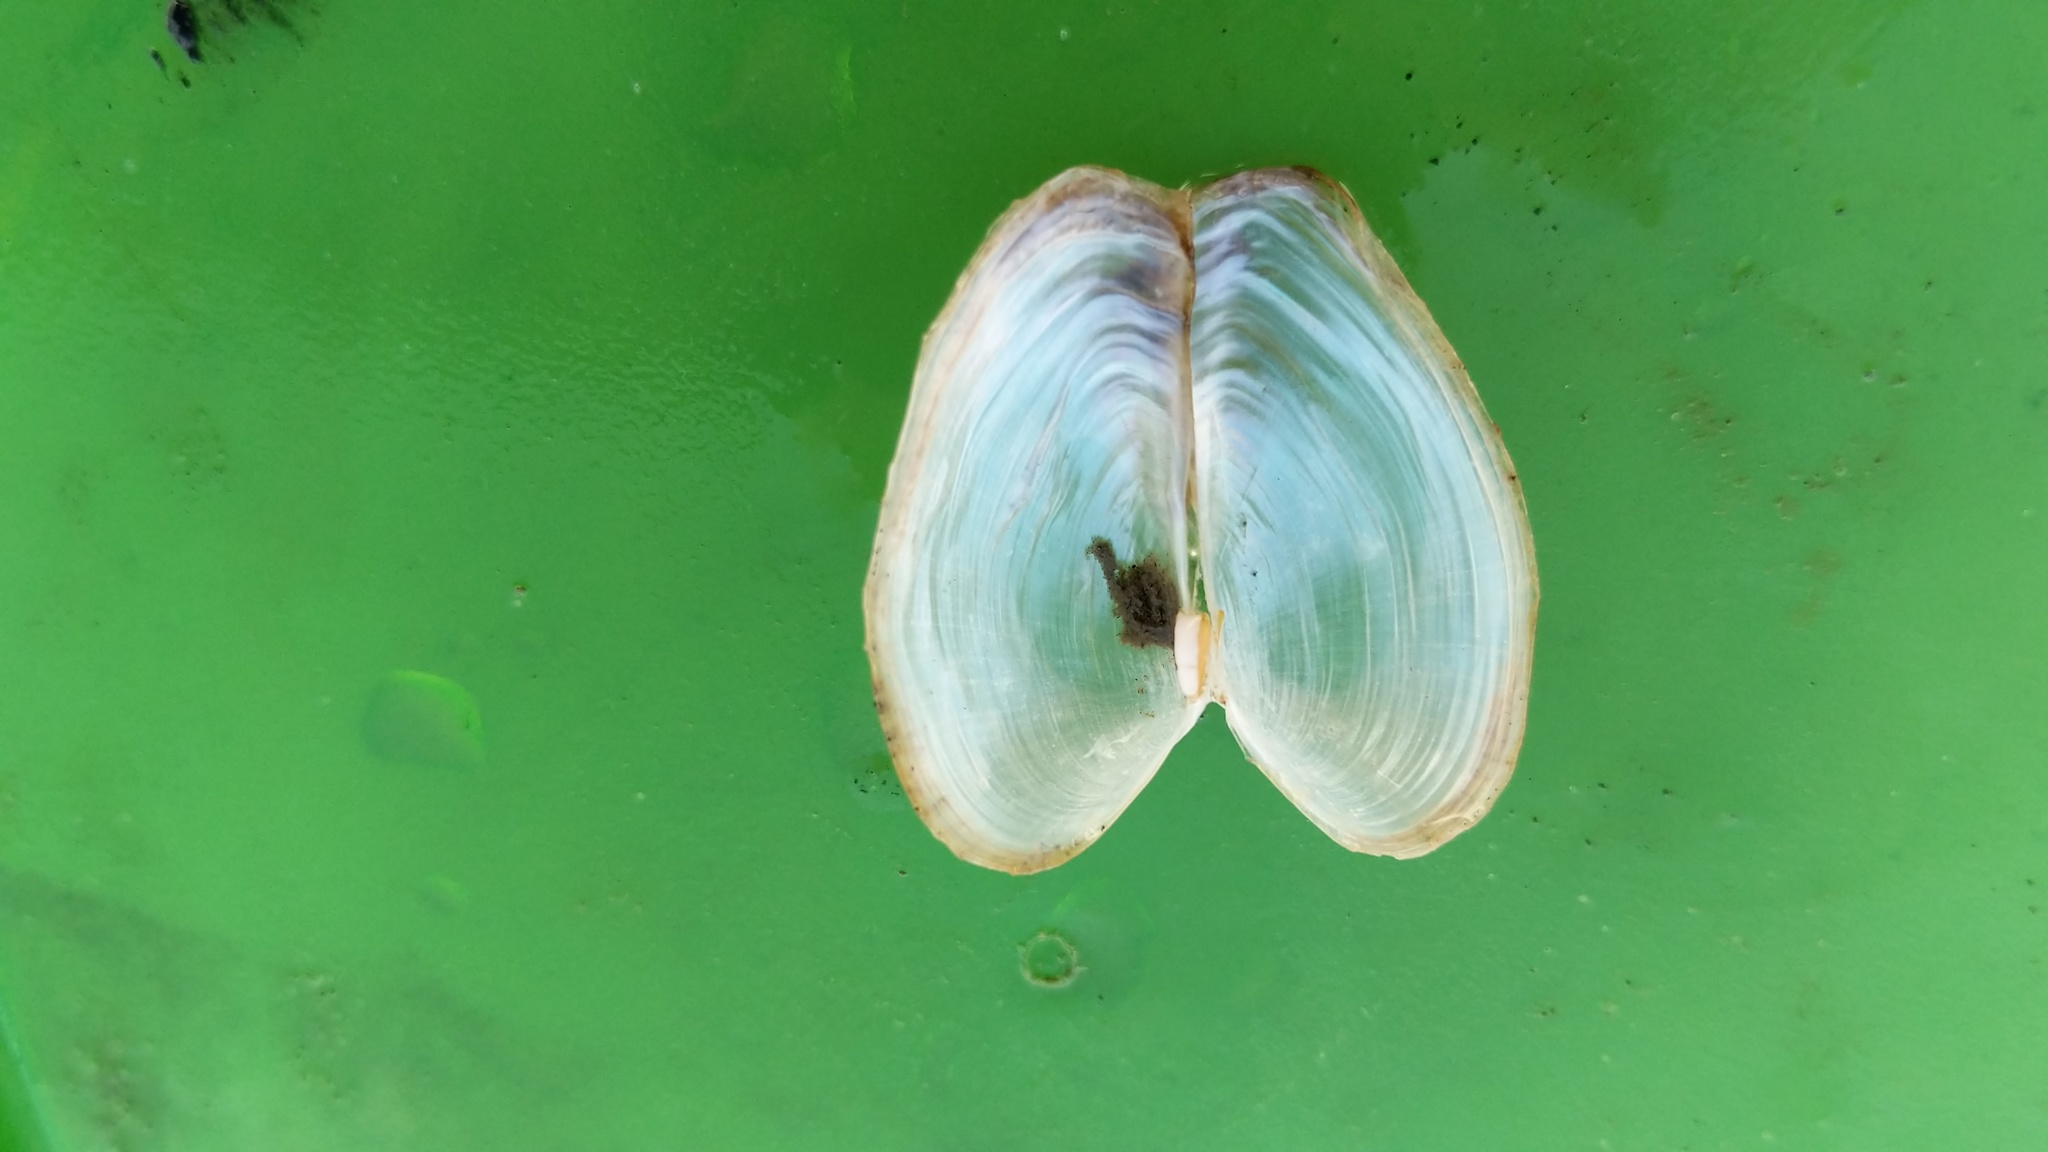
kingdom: Animalia
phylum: Mollusca
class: Bivalvia
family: Lyonsiidae
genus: Lyonsia
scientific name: Lyonsia californica
